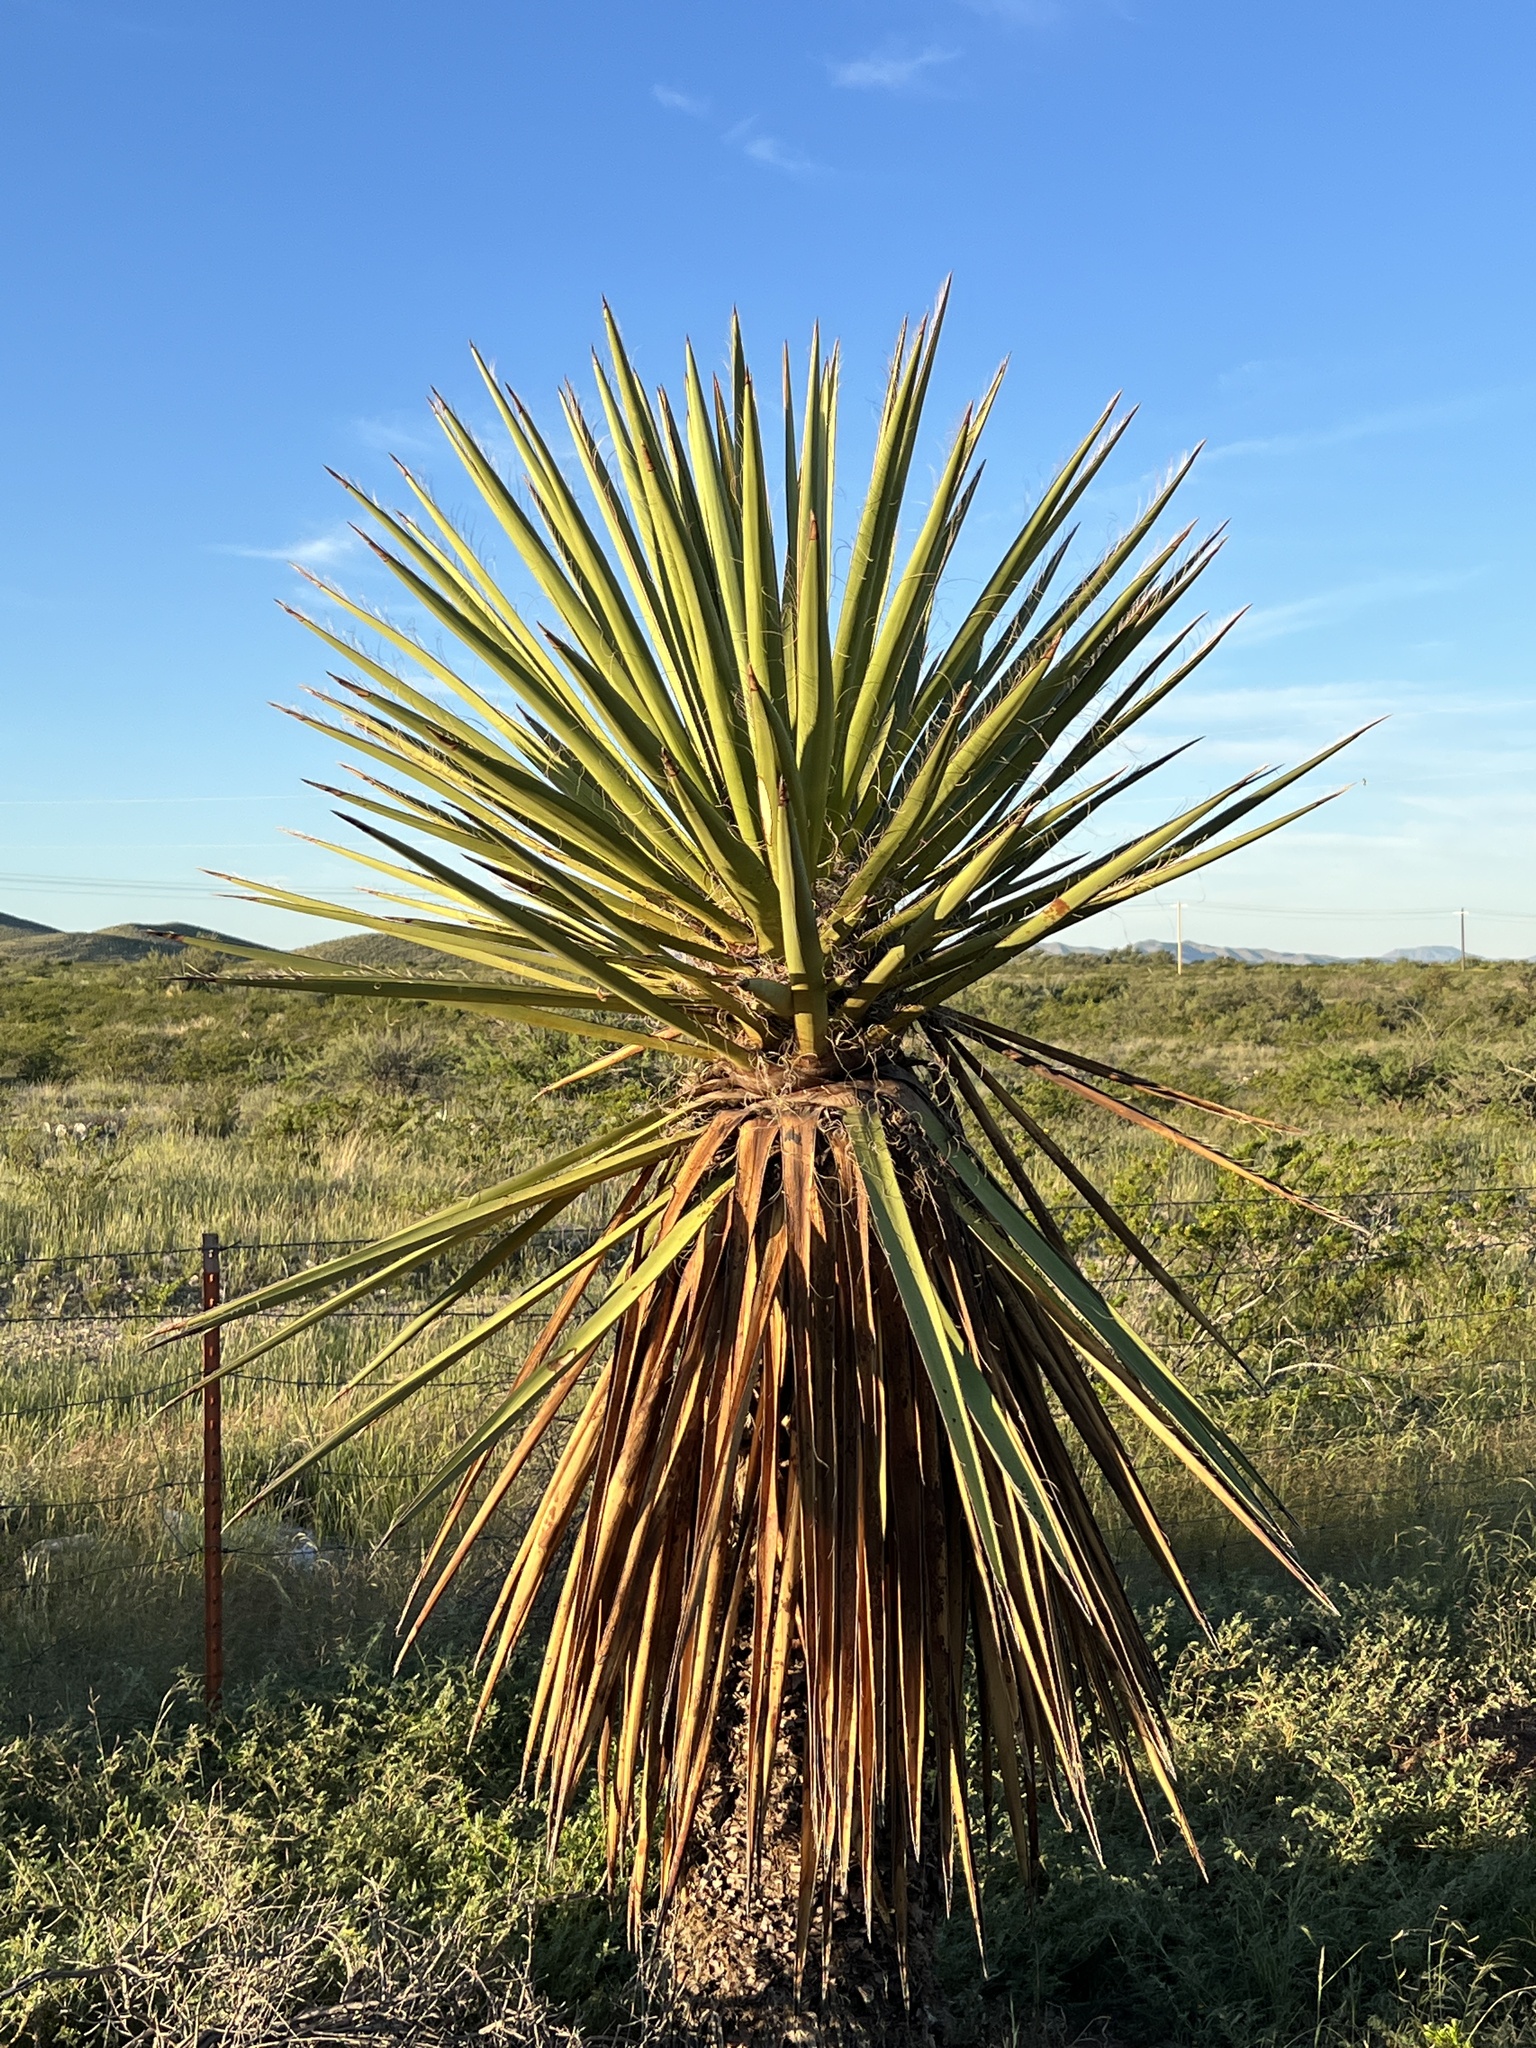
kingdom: Plantae
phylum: Tracheophyta
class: Liliopsida
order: Asparagales
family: Asparagaceae
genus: Yucca
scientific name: Yucca faxoniana
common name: Spanish dagger
